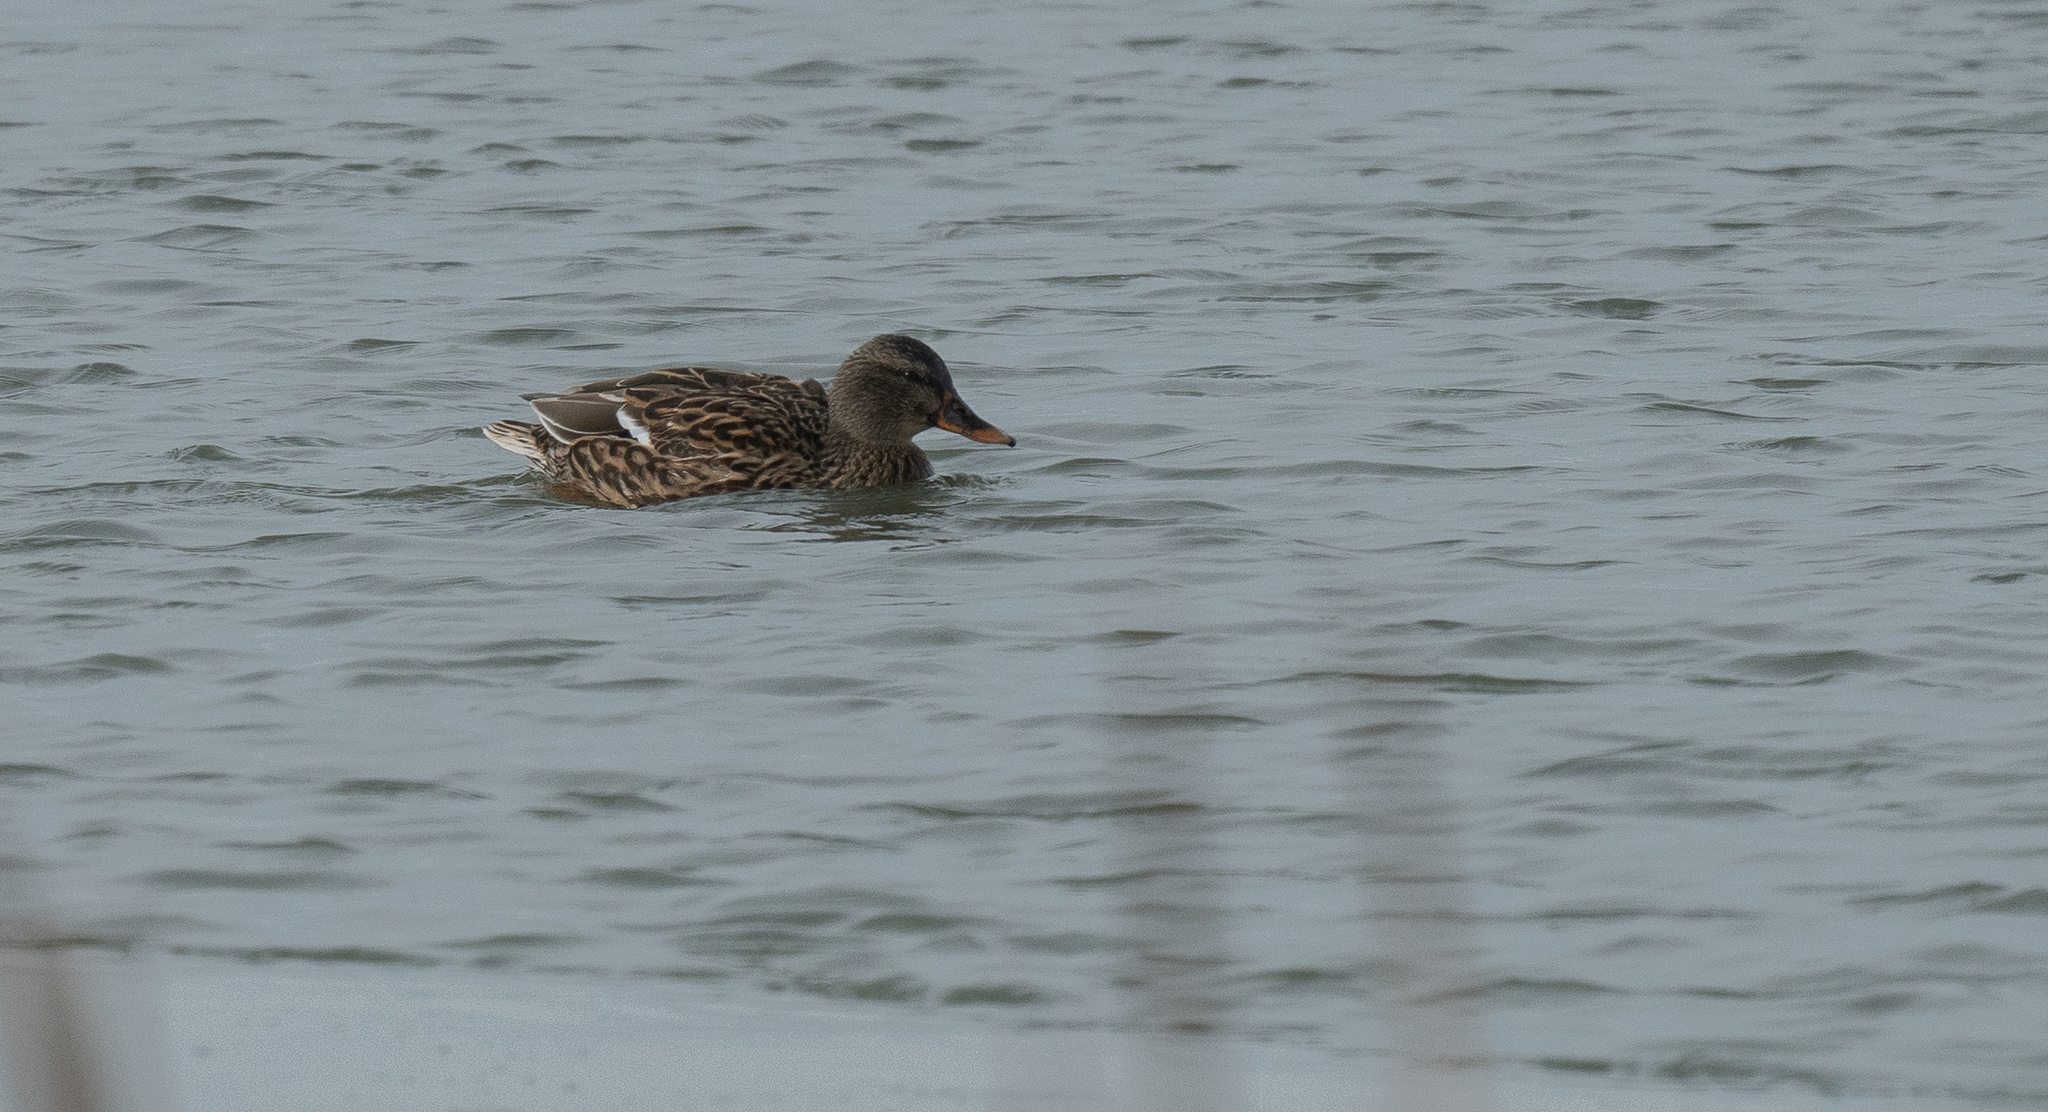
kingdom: Animalia
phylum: Chordata
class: Aves
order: Anseriformes
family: Anatidae
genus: Anas
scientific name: Anas platyrhynchos
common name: Mallard
